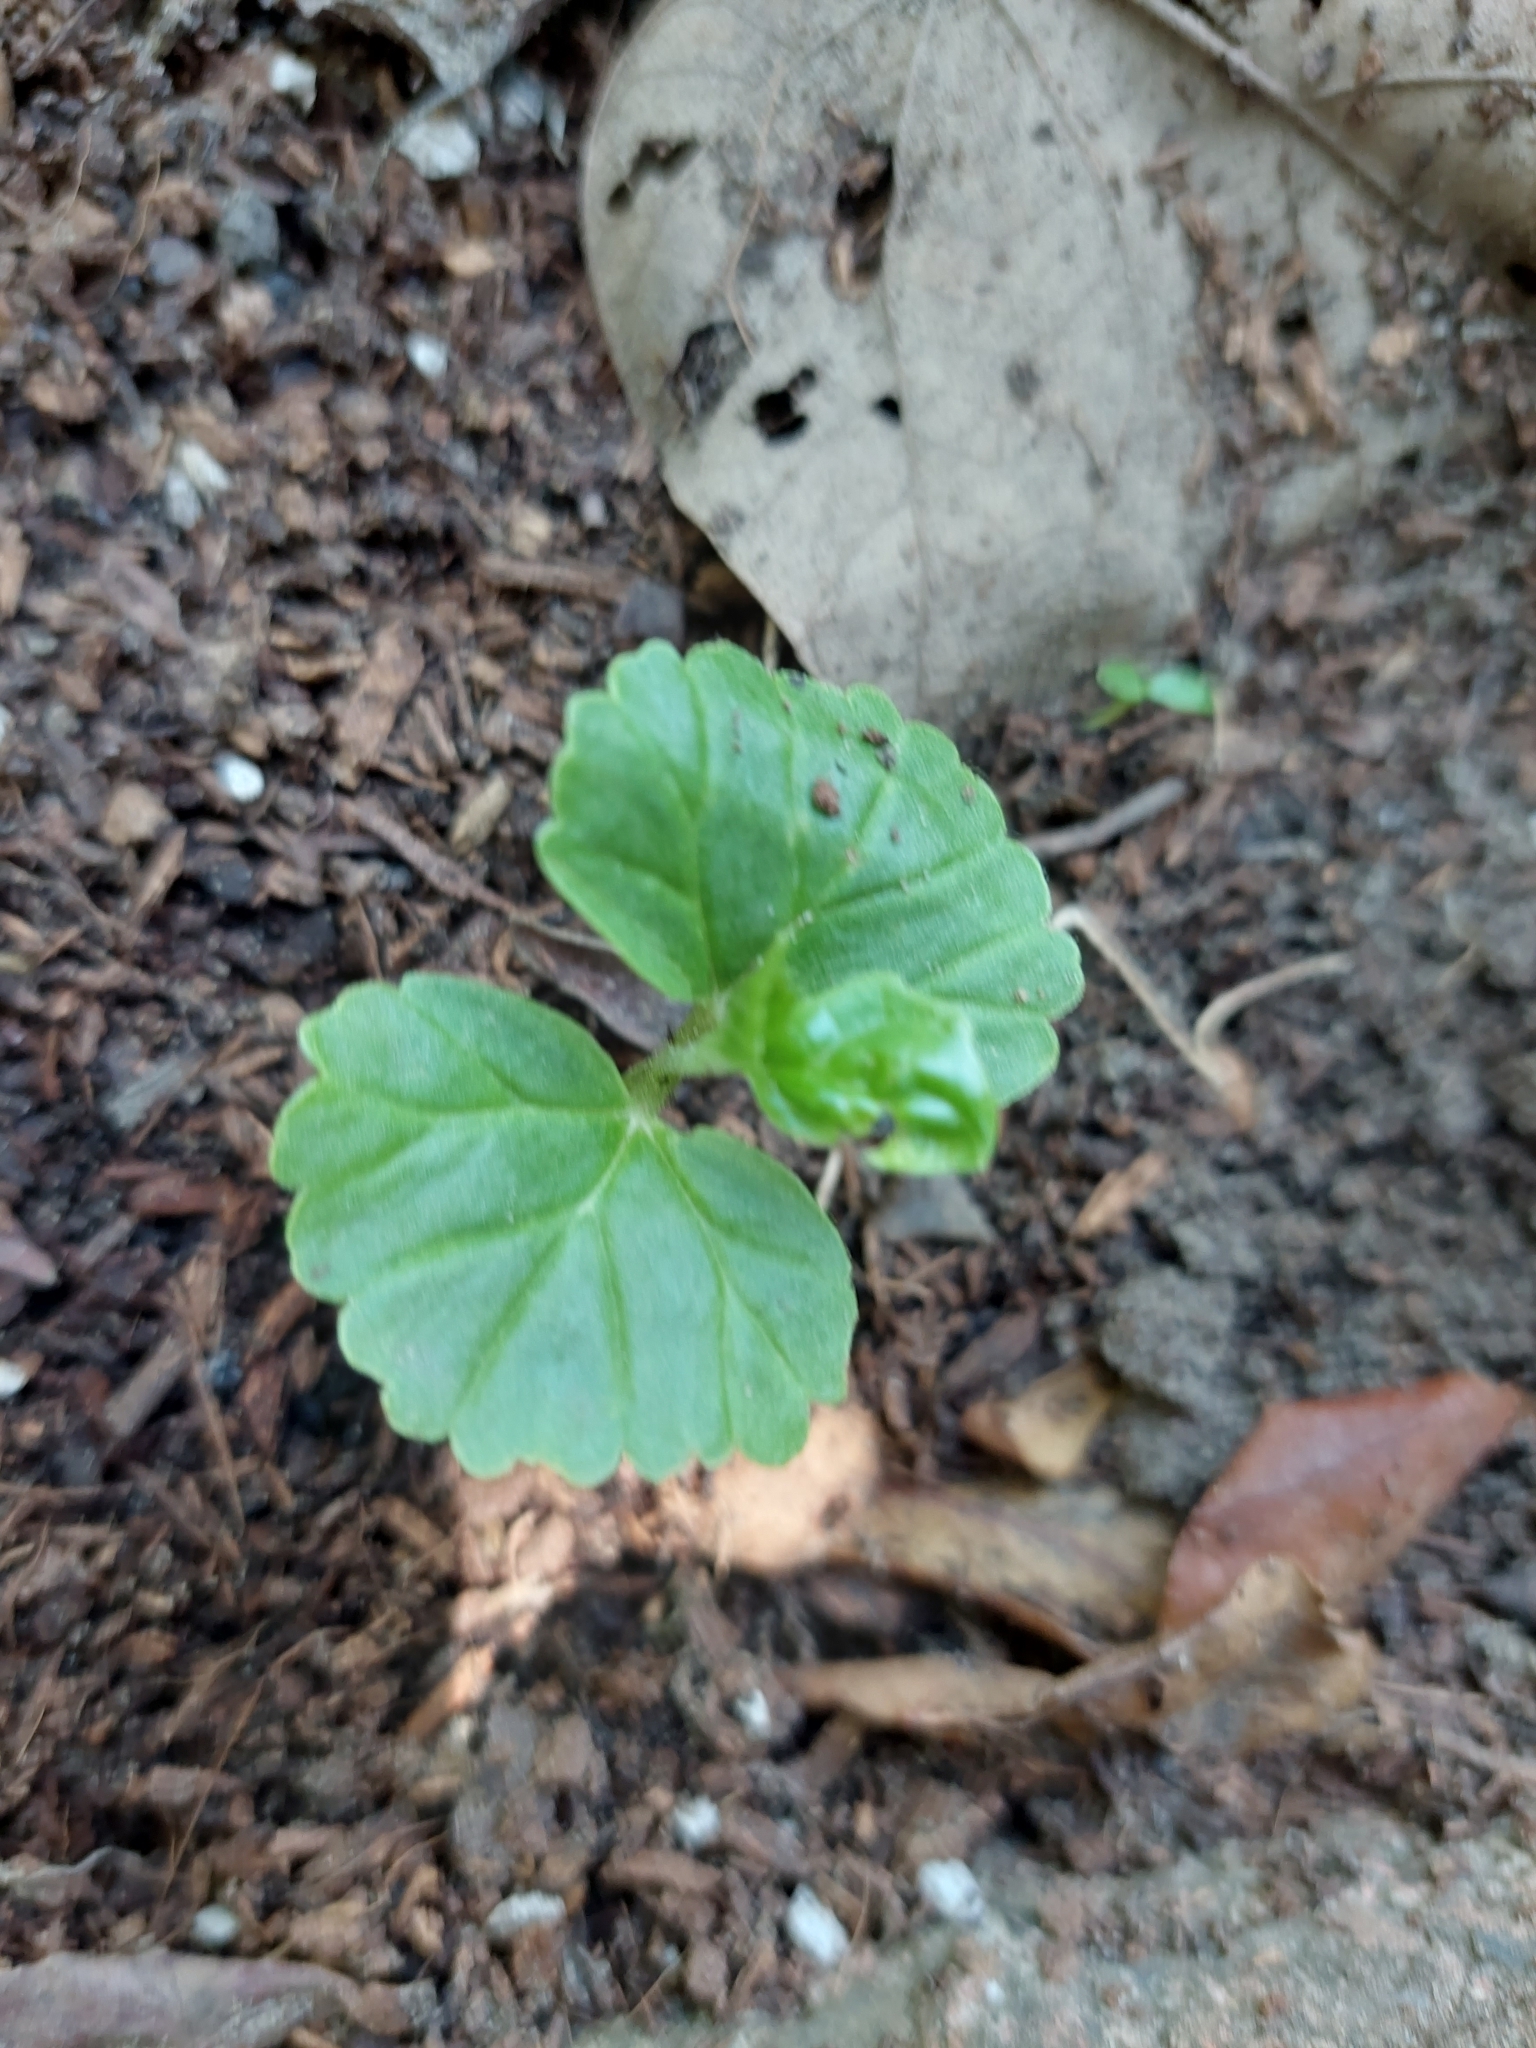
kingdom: Plantae
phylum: Tracheophyta
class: Magnoliopsida
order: Boraginales
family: Cordiaceae
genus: Cordia
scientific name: Cordia dichotoma
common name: Fragrant manjack
